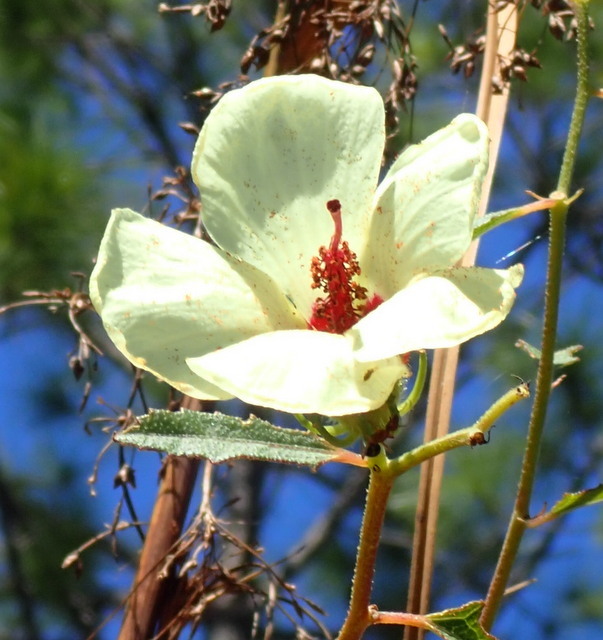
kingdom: Plantae
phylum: Tracheophyta
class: Magnoliopsida
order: Malvales
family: Malvaceae
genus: Hibiscus
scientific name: Hibiscus aculeatus
